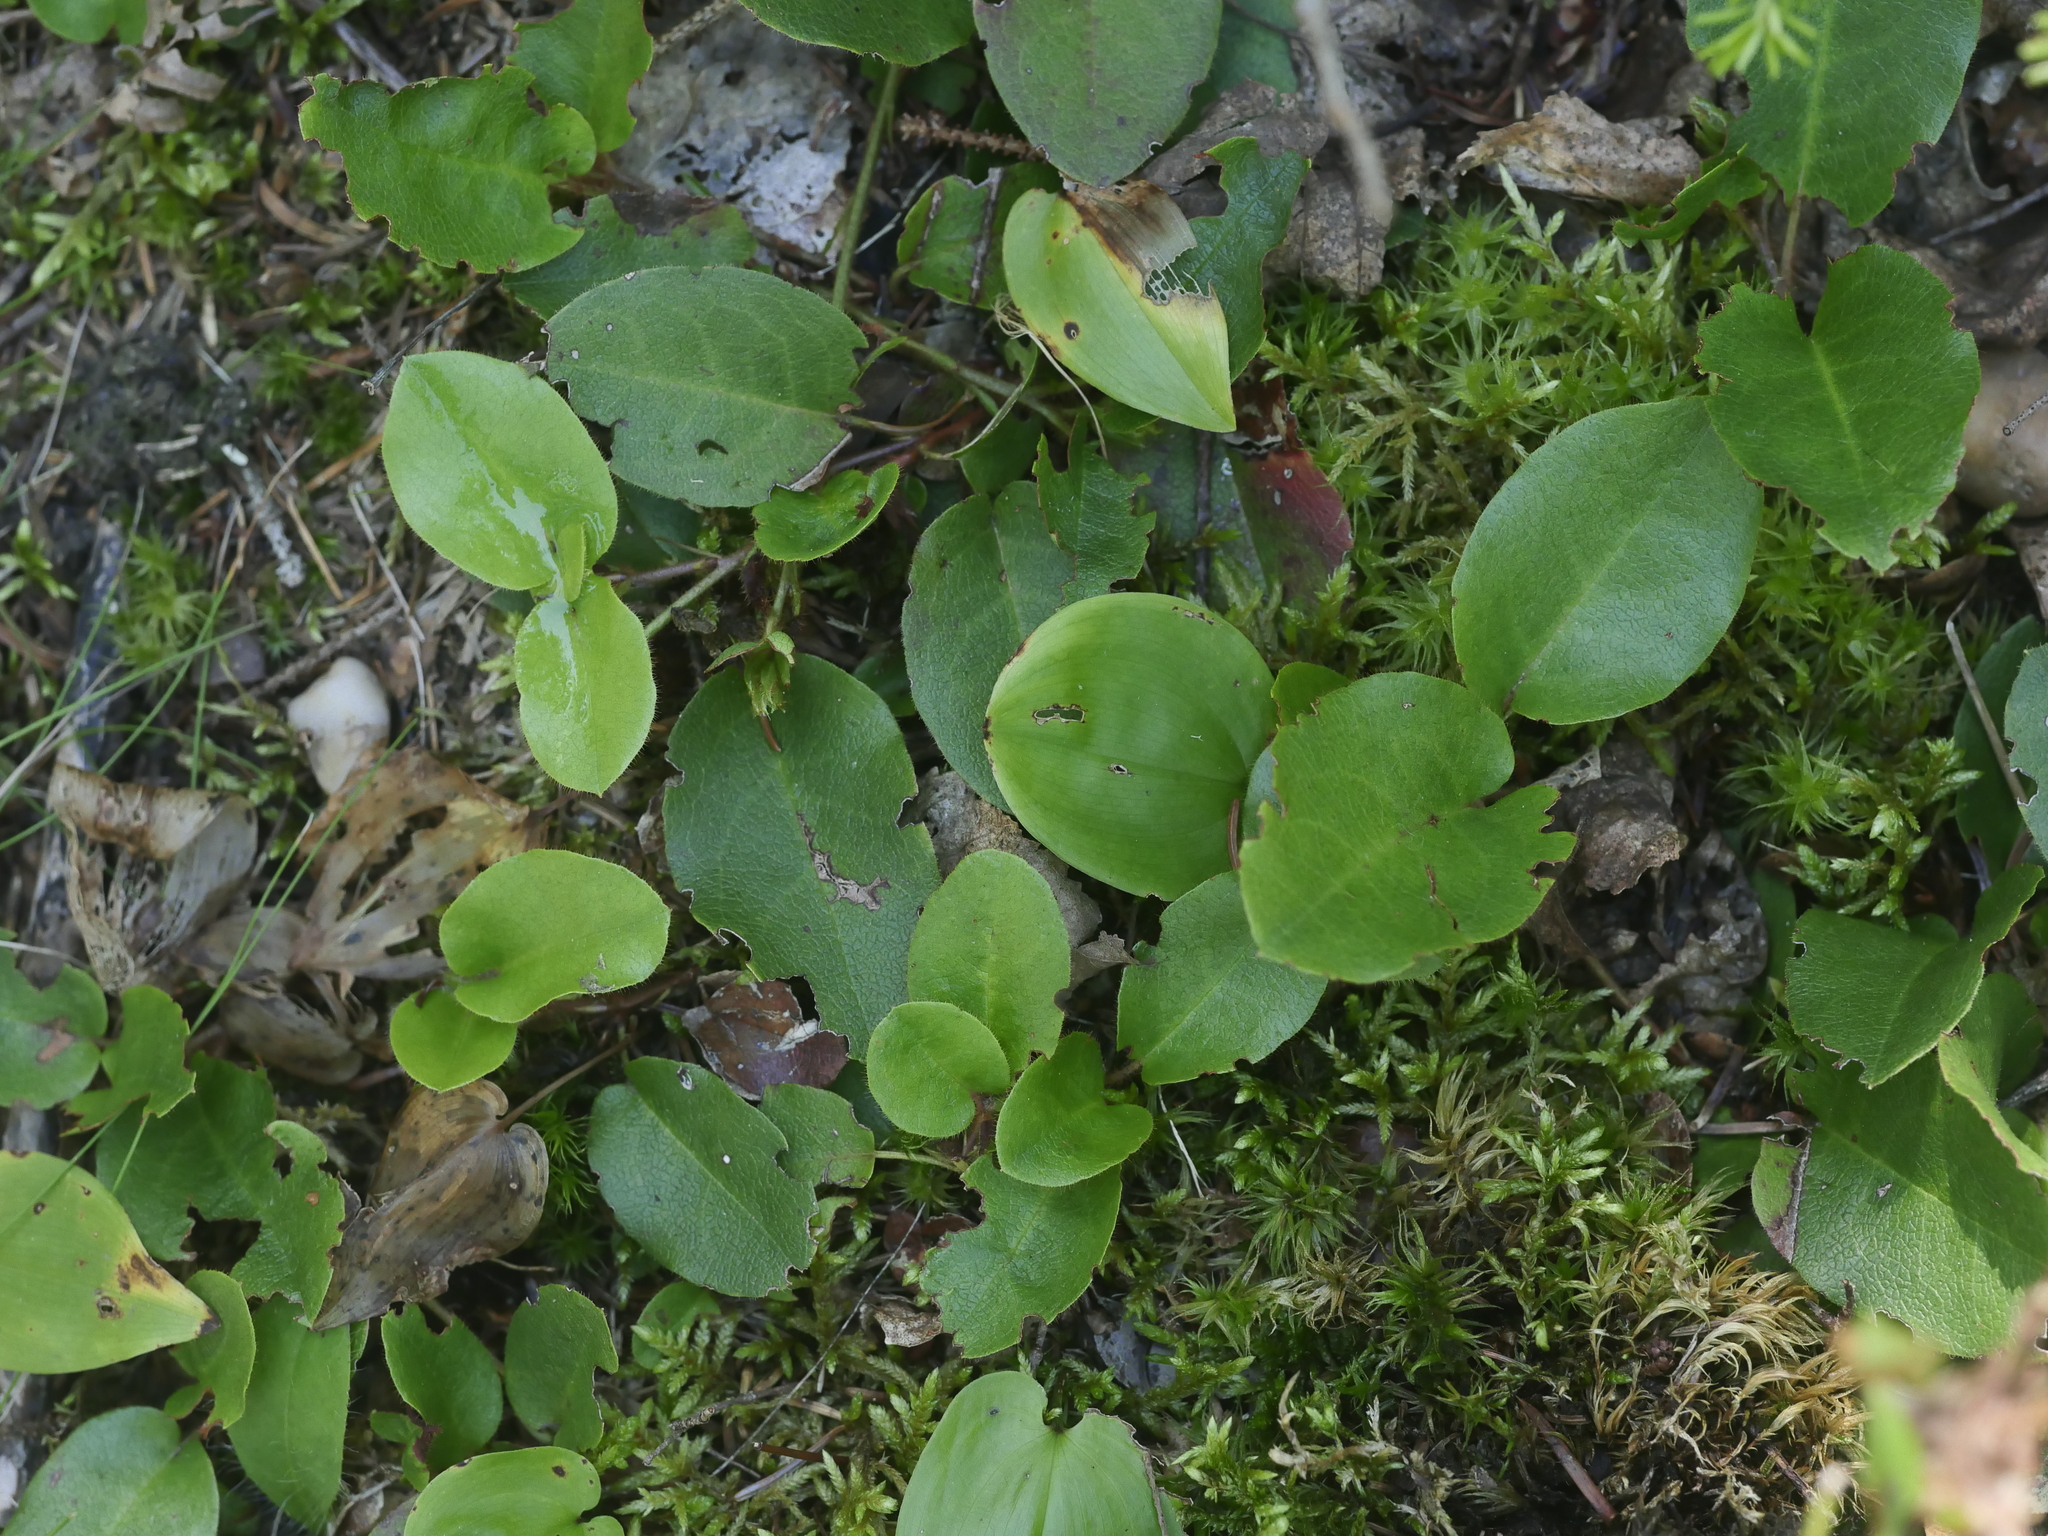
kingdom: Plantae
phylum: Tracheophyta
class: Magnoliopsida
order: Ericales
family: Ericaceae
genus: Epigaea
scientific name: Epigaea repens
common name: Gravelroot
